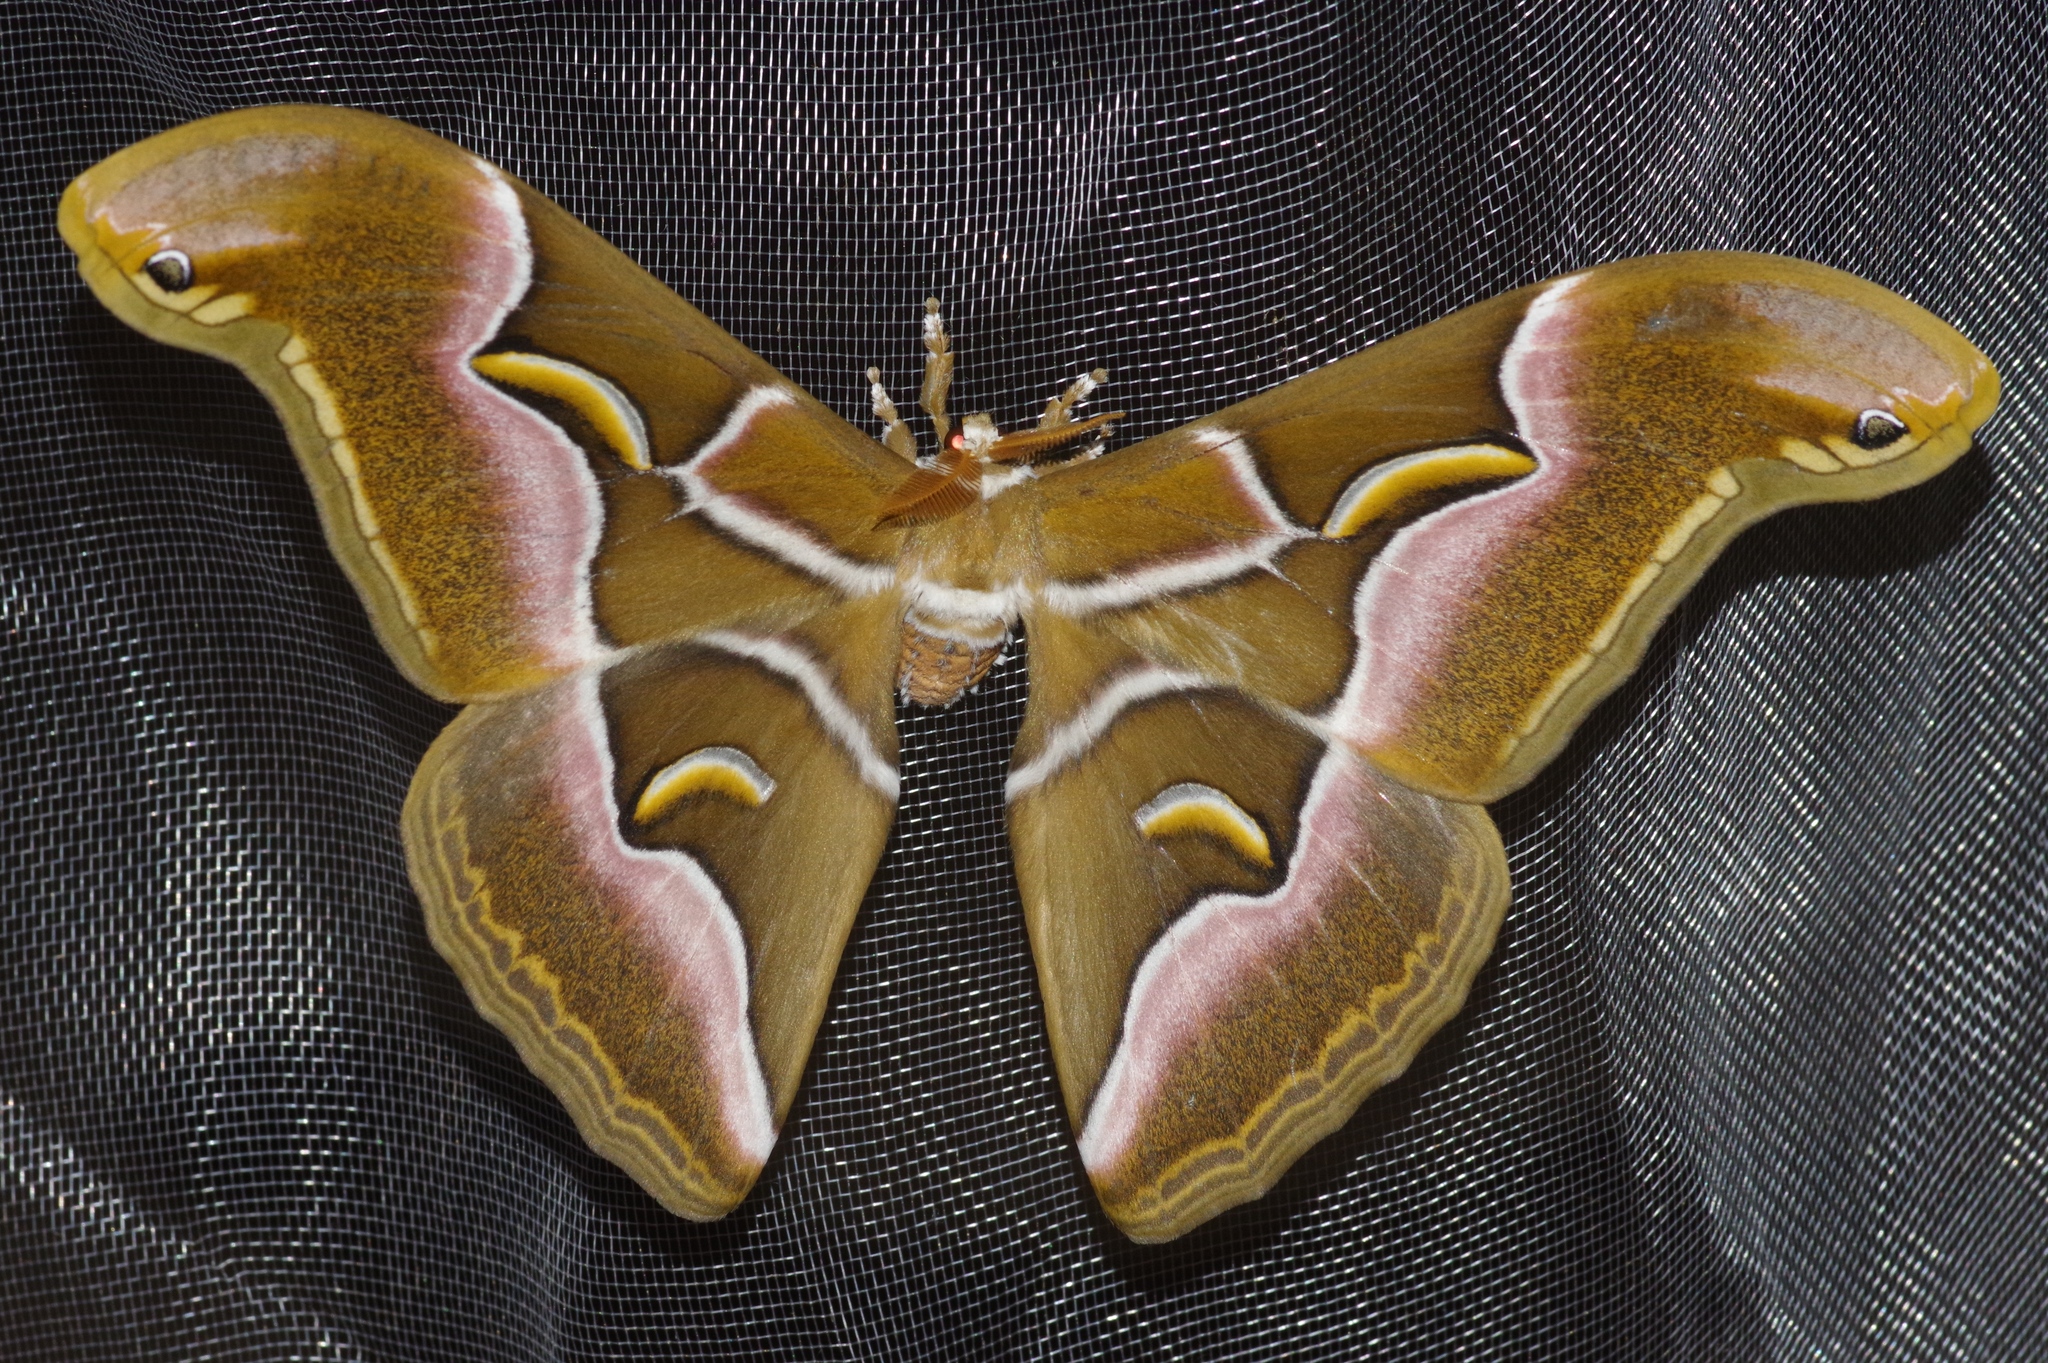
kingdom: Animalia
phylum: Arthropoda
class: Insecta
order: Lepidoptera
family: Saturniidae
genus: Samia
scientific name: Samia cynthia
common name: Ailanthus silkmoth
